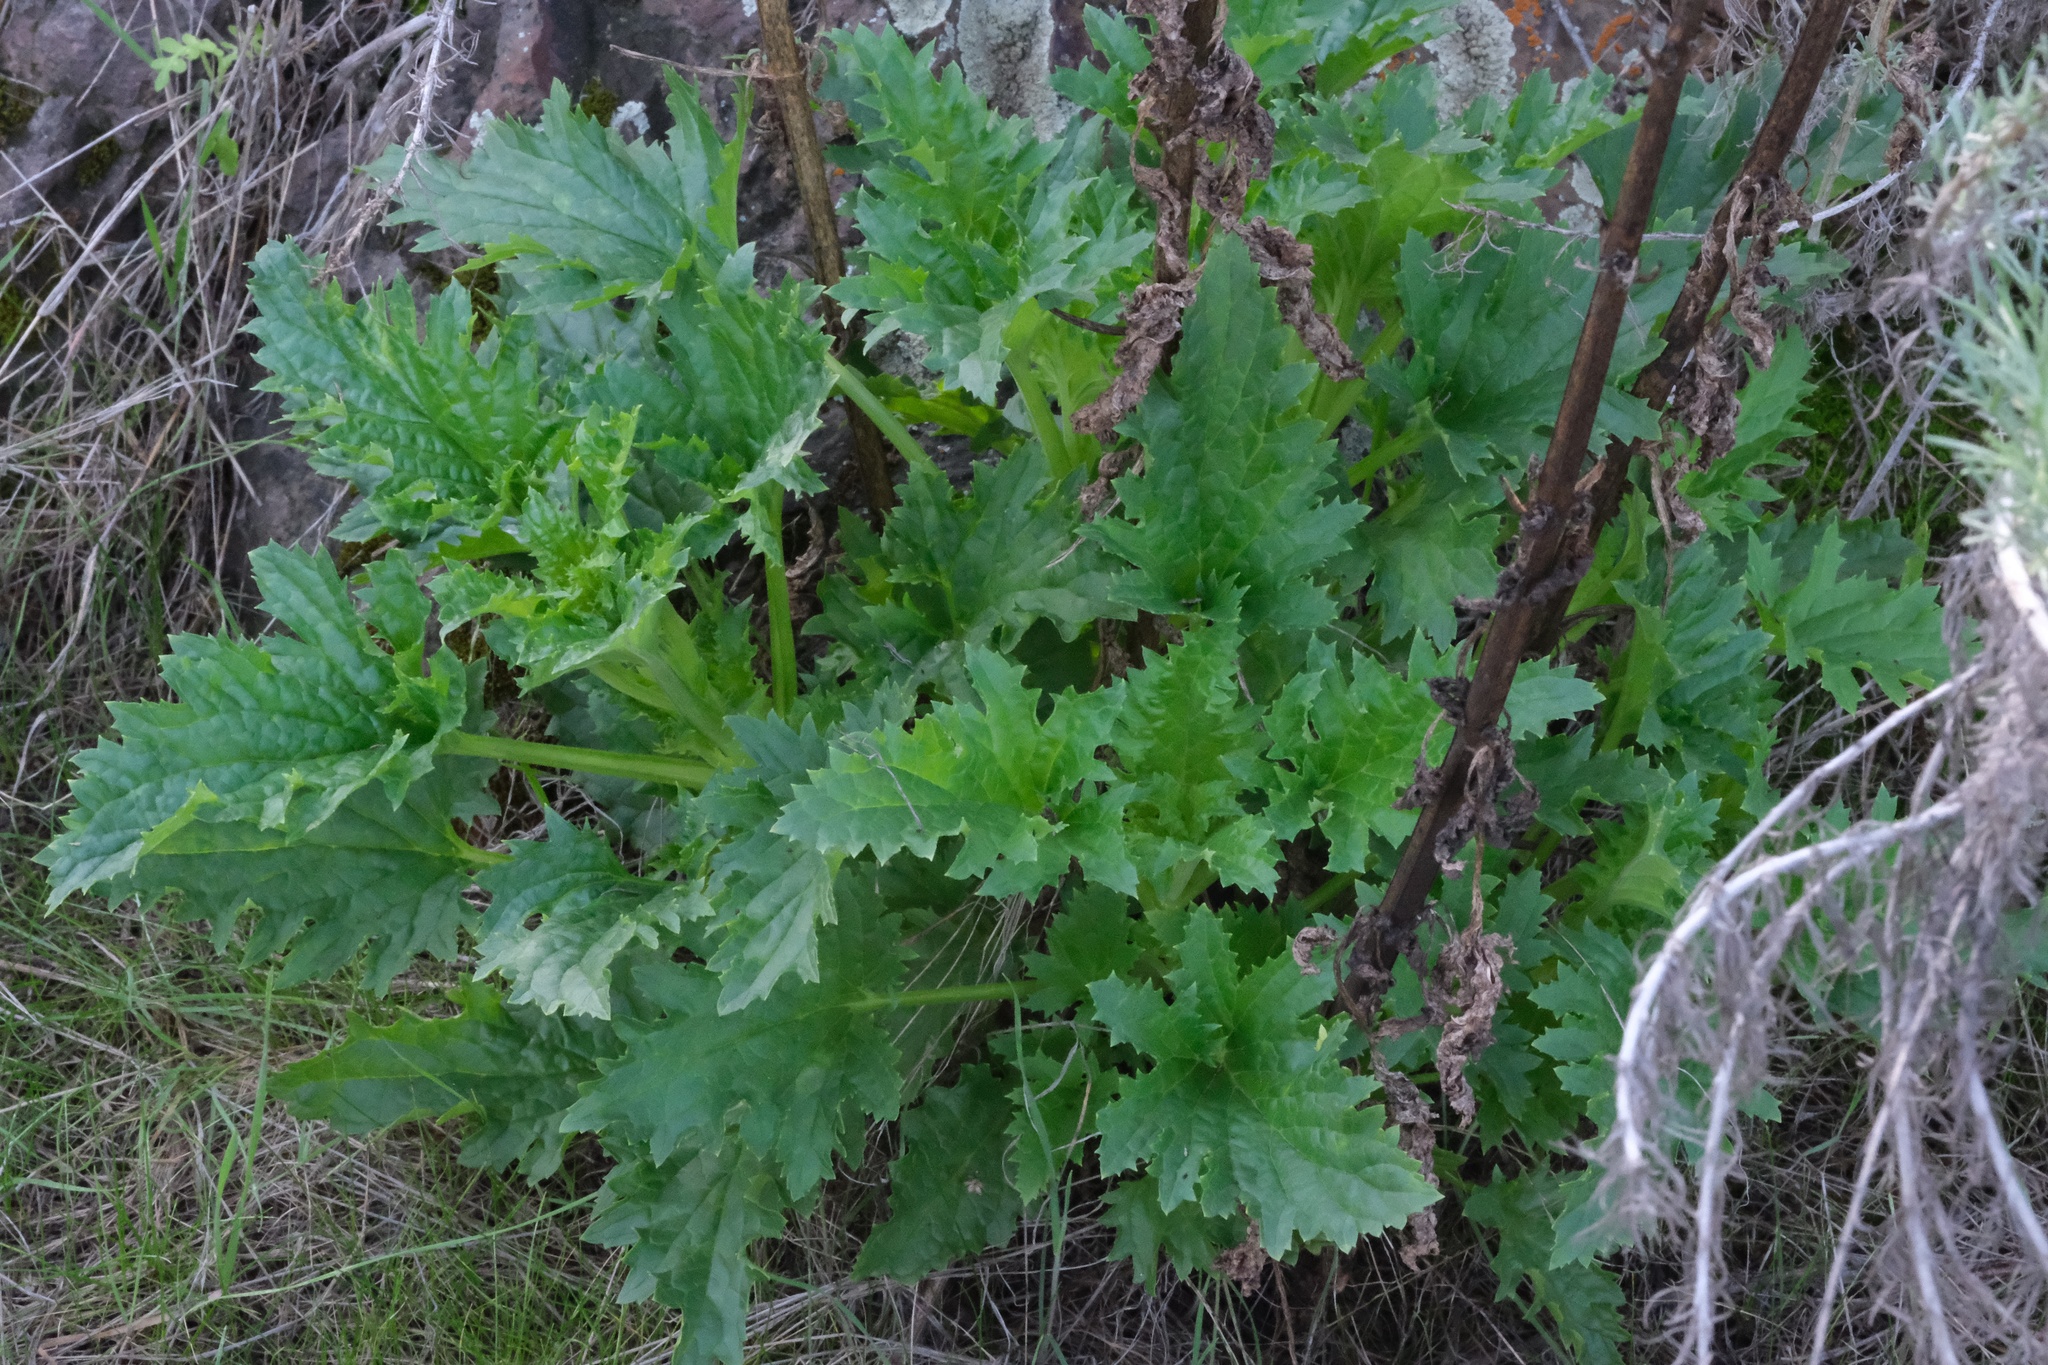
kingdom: Plantae
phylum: Tracheophyta
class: Magnoliopsida
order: Lamiales
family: Scrophulariaceae
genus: Scrophularia
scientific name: Scrophularia californica
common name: California figwort
